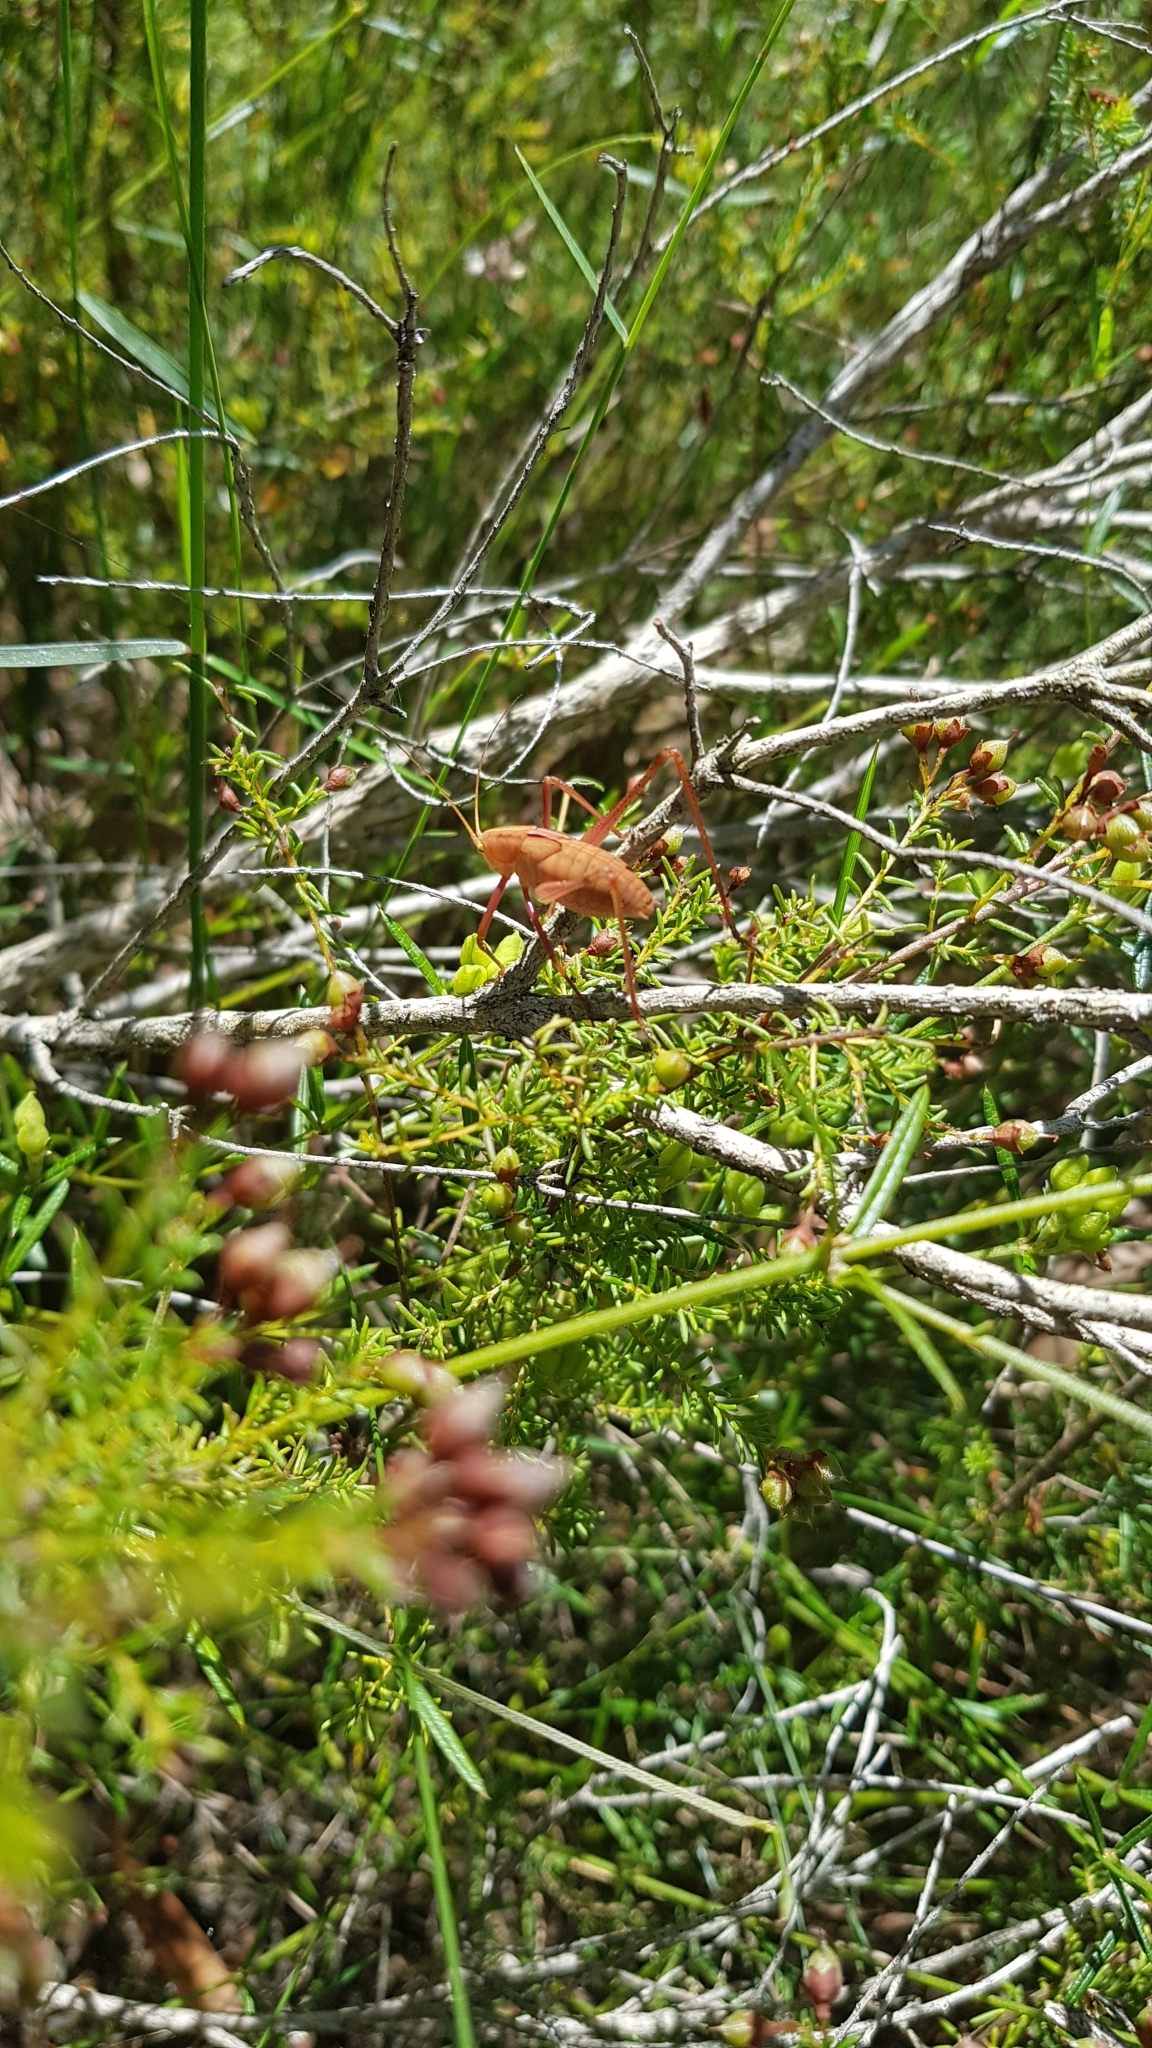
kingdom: Animalia
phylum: Arthropoda
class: Insecta
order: Orthoptera
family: Tettigoniidae
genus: Elephantodeta
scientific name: Elephantodeta nobilis
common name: Noble hump-backed kattydid
